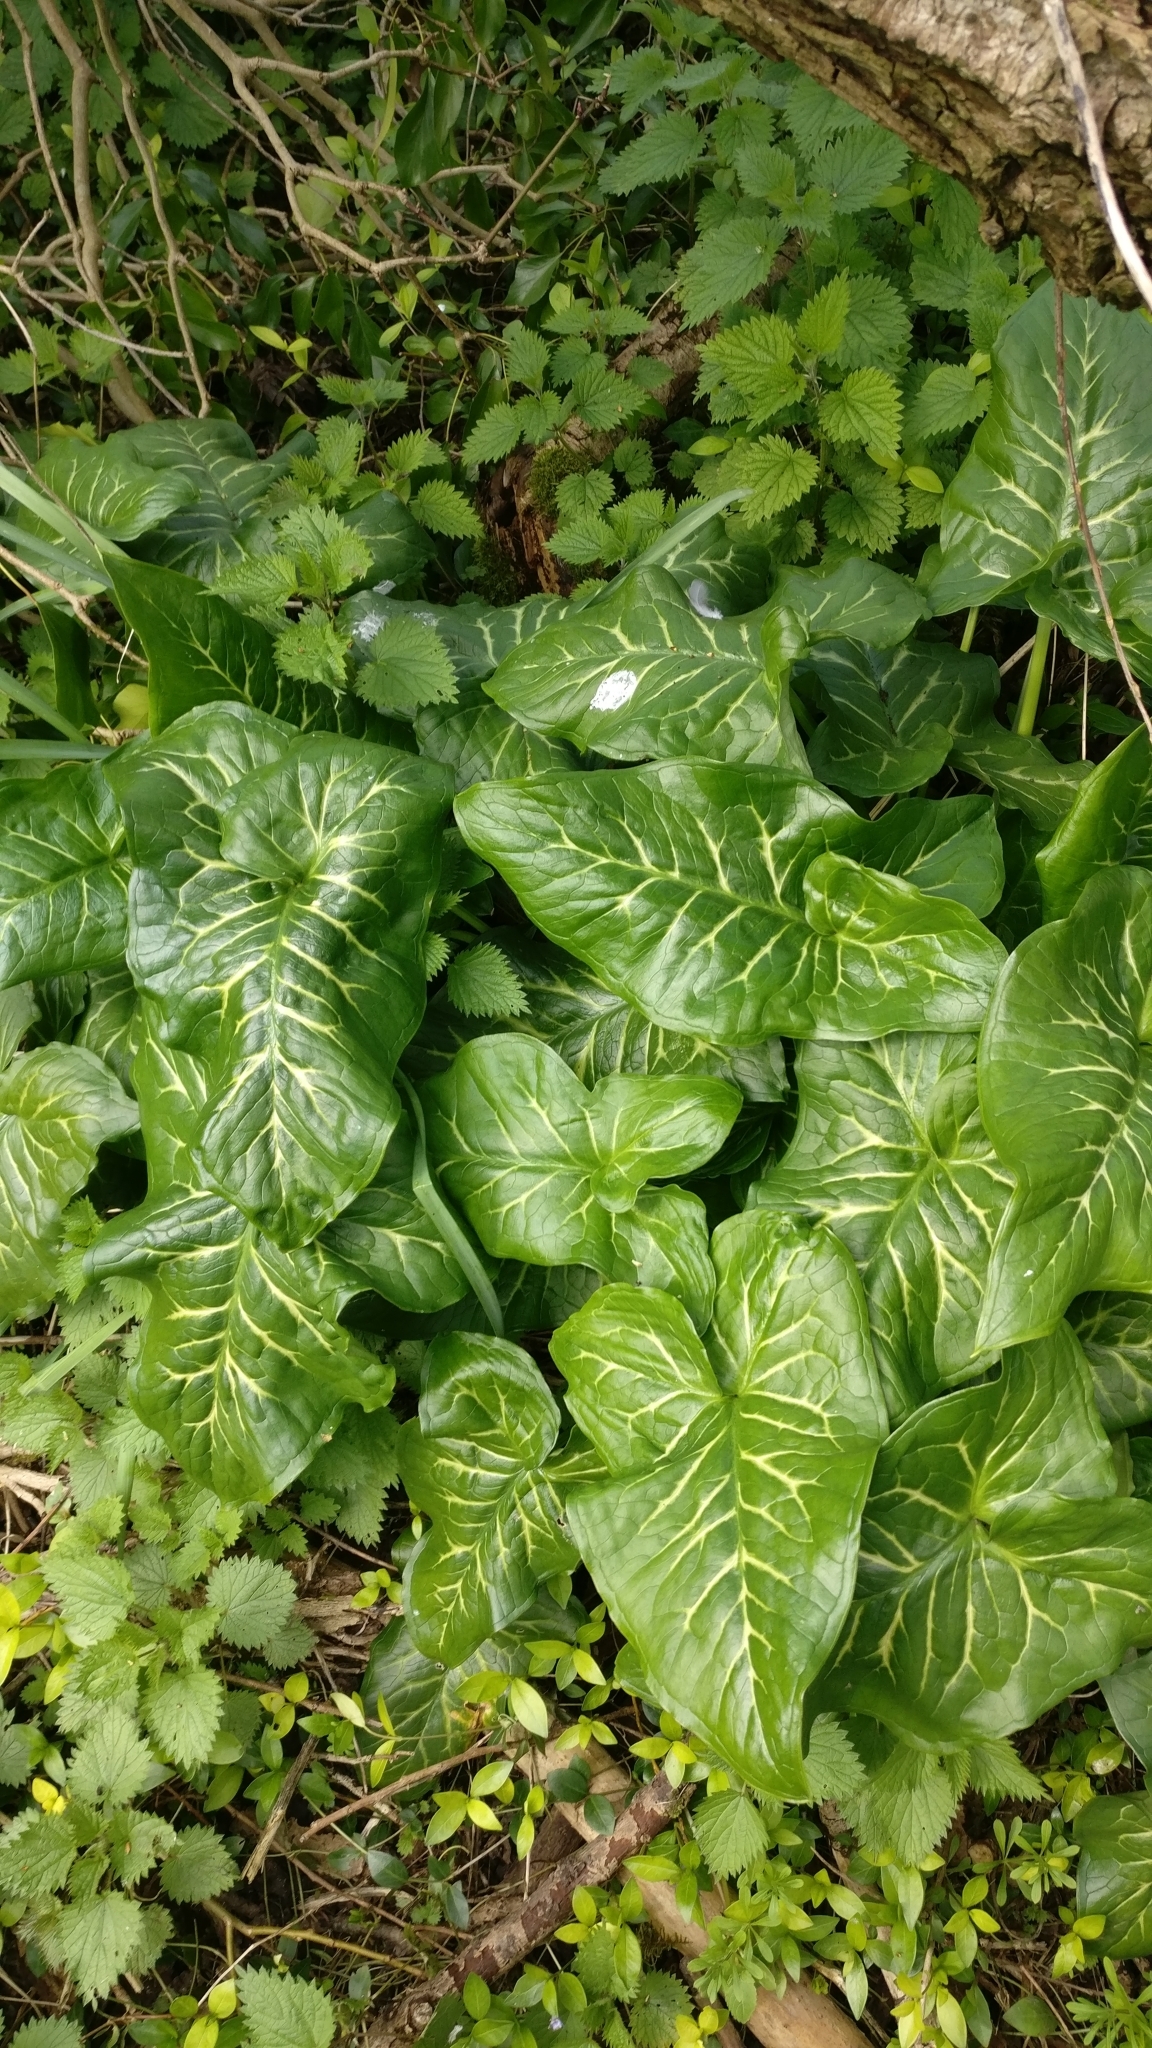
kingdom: Plantae
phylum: Tracheophyta
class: Liliopsida
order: Alismatales
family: Araceae
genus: Arum
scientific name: Arum italicum
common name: Italian lords-and-ladies
